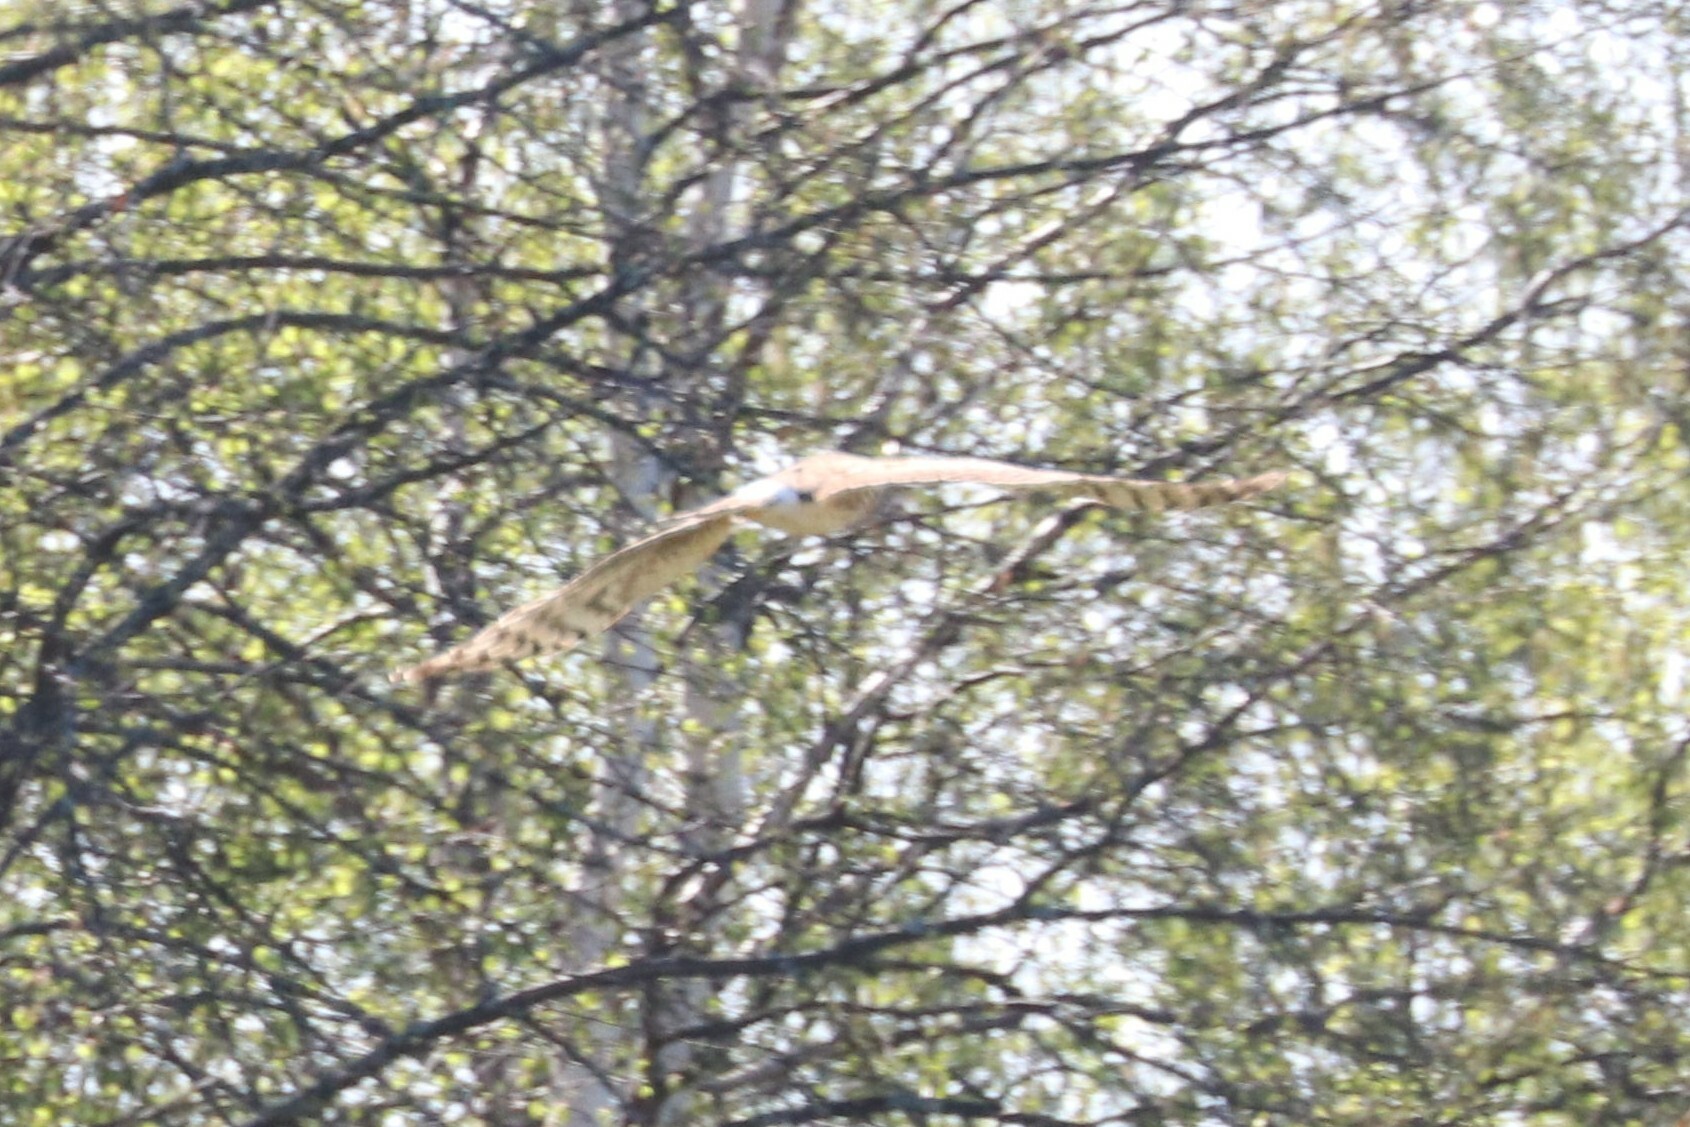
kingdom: Animalia
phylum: Chordata
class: Aves
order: Accipitriformes
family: Accipitridae
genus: Circus
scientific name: Circus cyaneus
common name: Hen harrier
